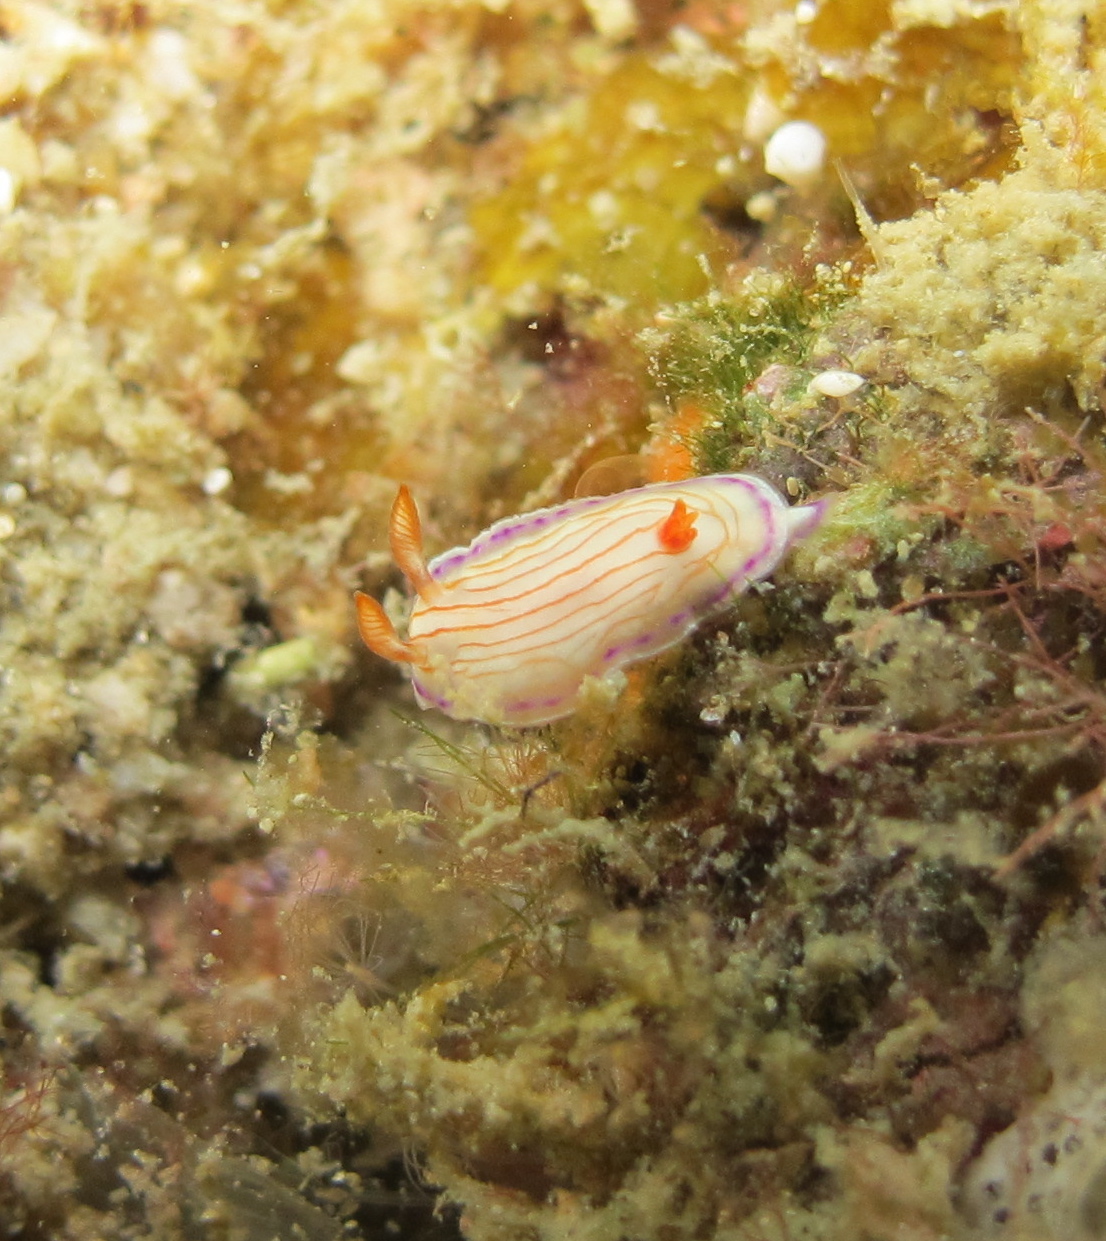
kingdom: Animalia
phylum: Mollusca
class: Gastropoda
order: Nudibranchia
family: Chromodorididae
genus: Hypselodoris
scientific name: Hypselodoris katherinae
